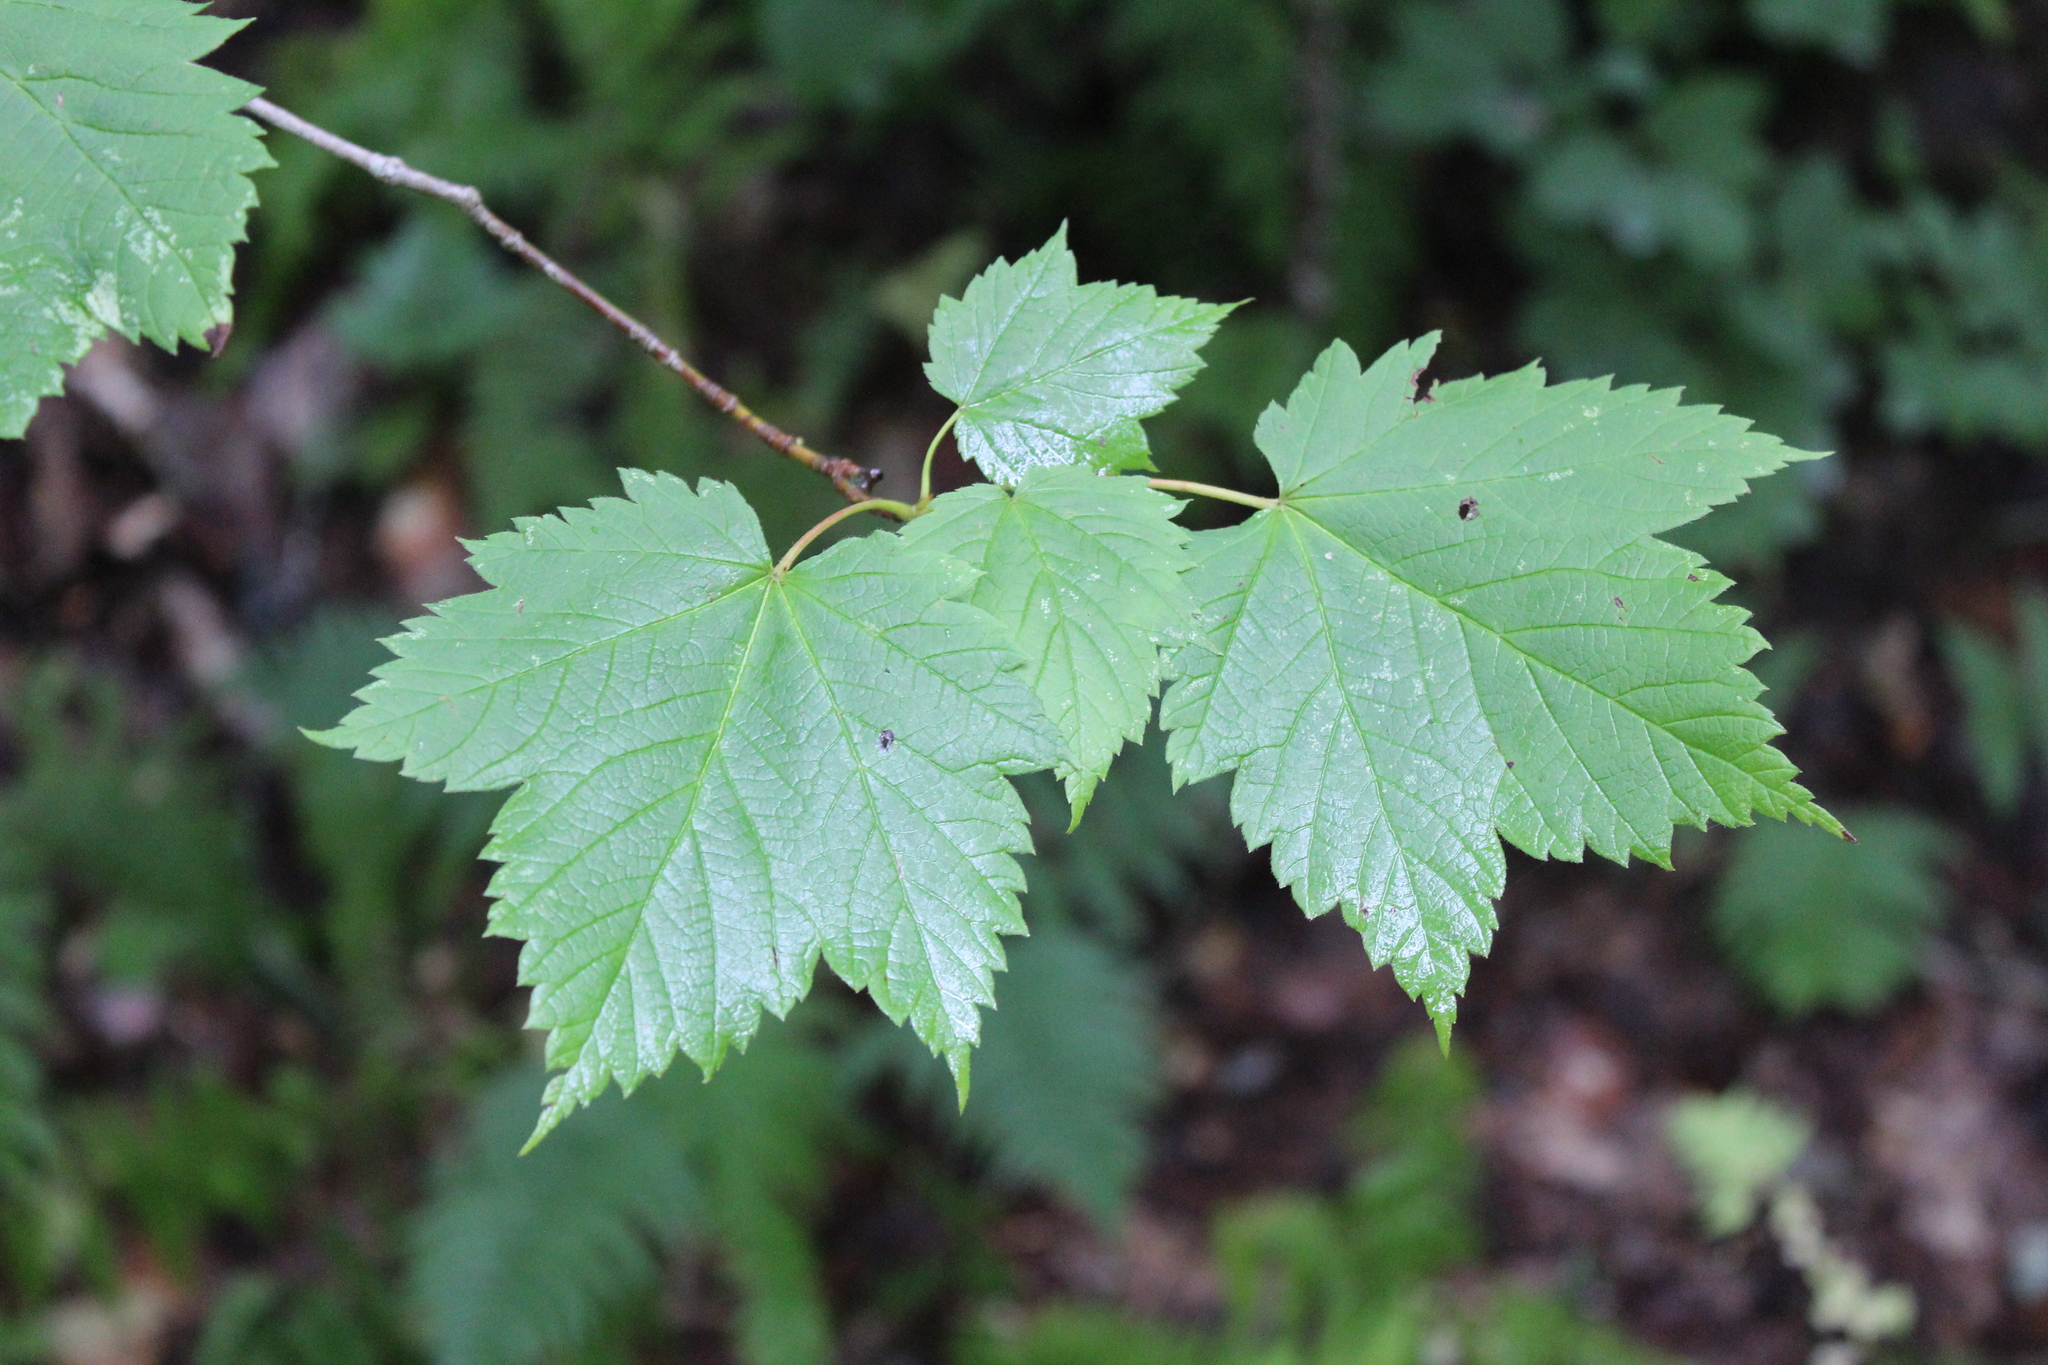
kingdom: Plantae
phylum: Tracheophyta
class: Magnoliopsida
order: Sapindales
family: Sapindaceae
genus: Acer
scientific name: Acer spicatum
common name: Mountain maple
